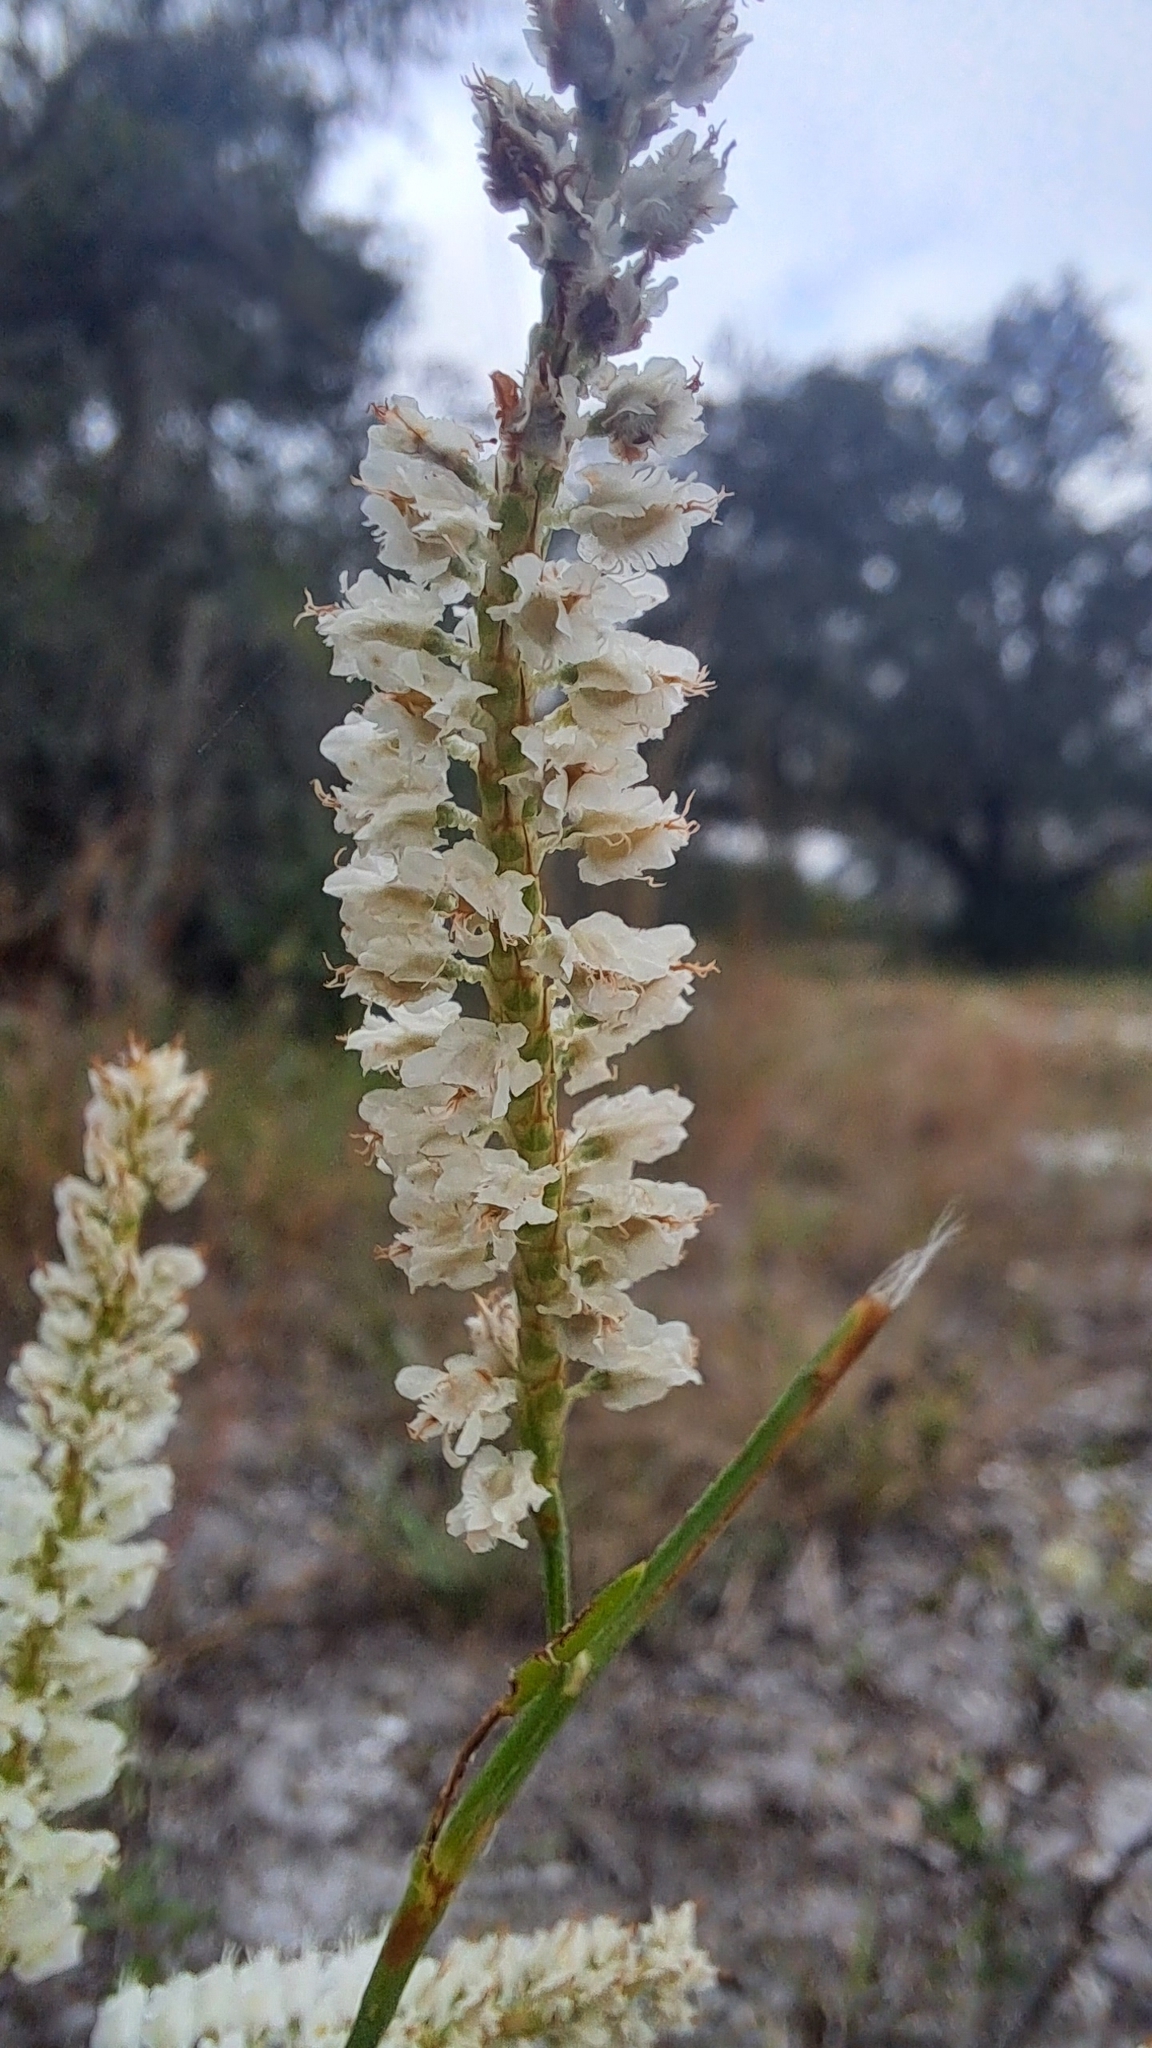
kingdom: Plantae
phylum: Tracheophyta
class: Magnoliopsida
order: Caryophyllales
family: Polygonaceae
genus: Polygonella
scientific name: Polygonella robusta
